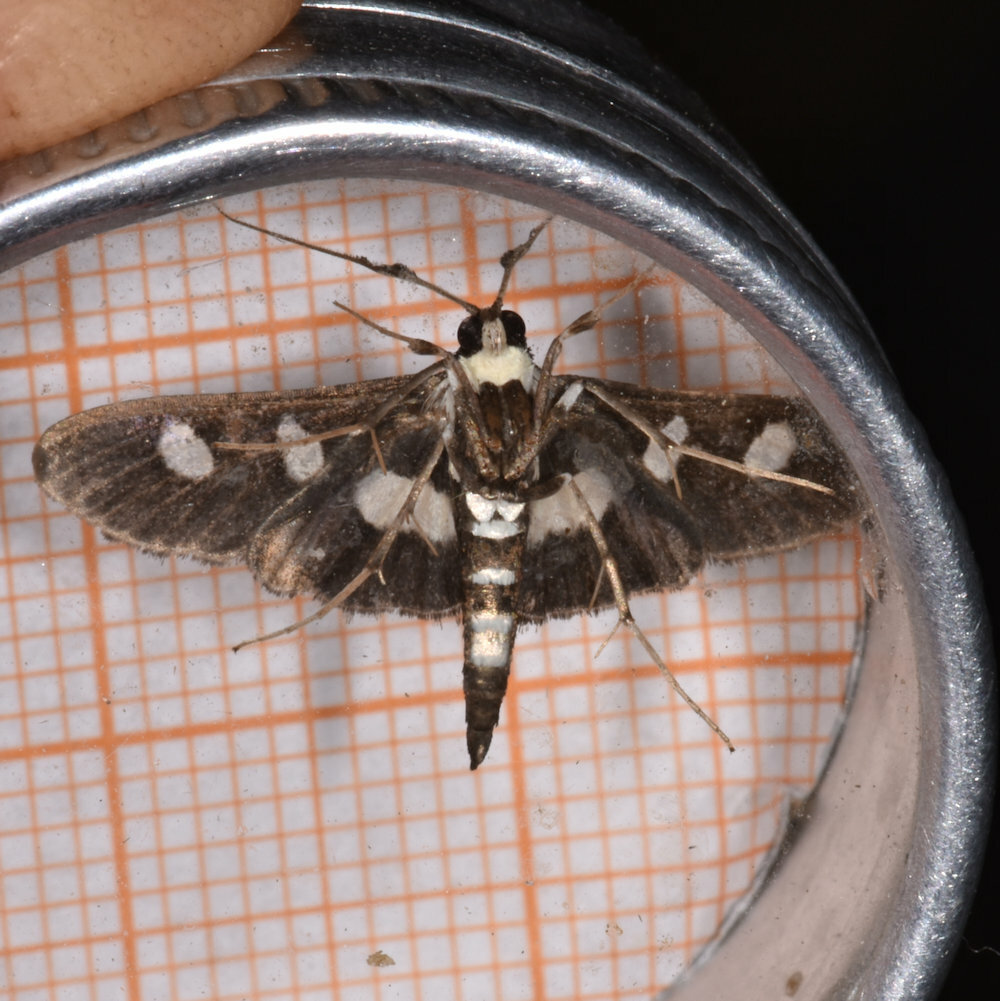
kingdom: Animalia
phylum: Arthropoda
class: Insecta
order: Lepidoptera
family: Crambidae
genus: Desmia
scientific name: Desmia funeralis
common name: Grape leaf folder moth
